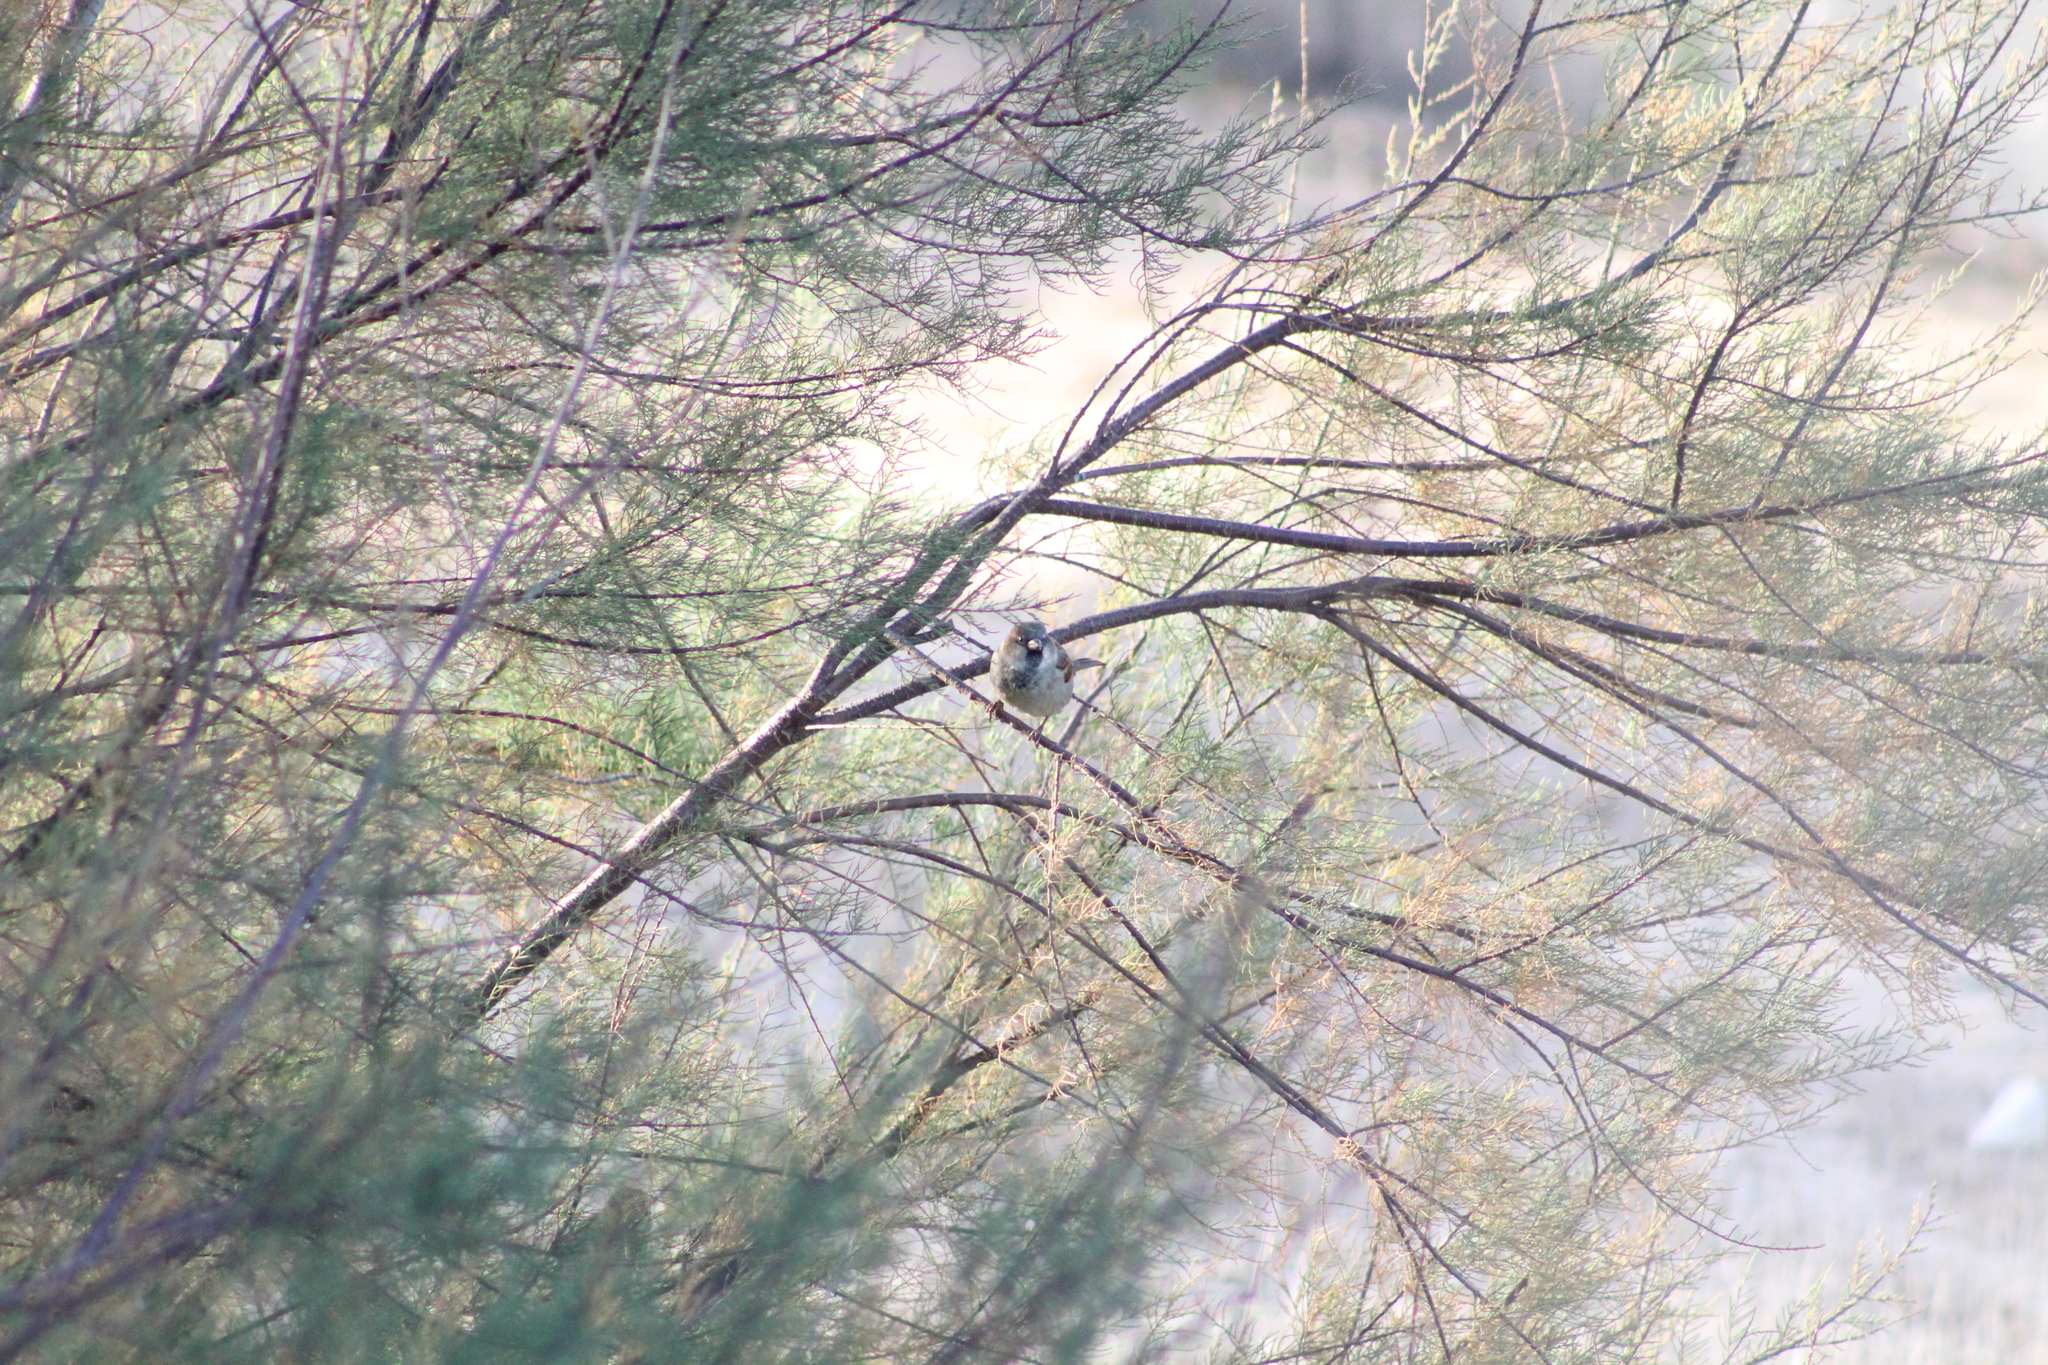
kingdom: Animalia
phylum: Chordata
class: Aves
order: Passeriformes
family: Passeridae
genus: Passer
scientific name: Passer domesticus
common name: House sparrow
